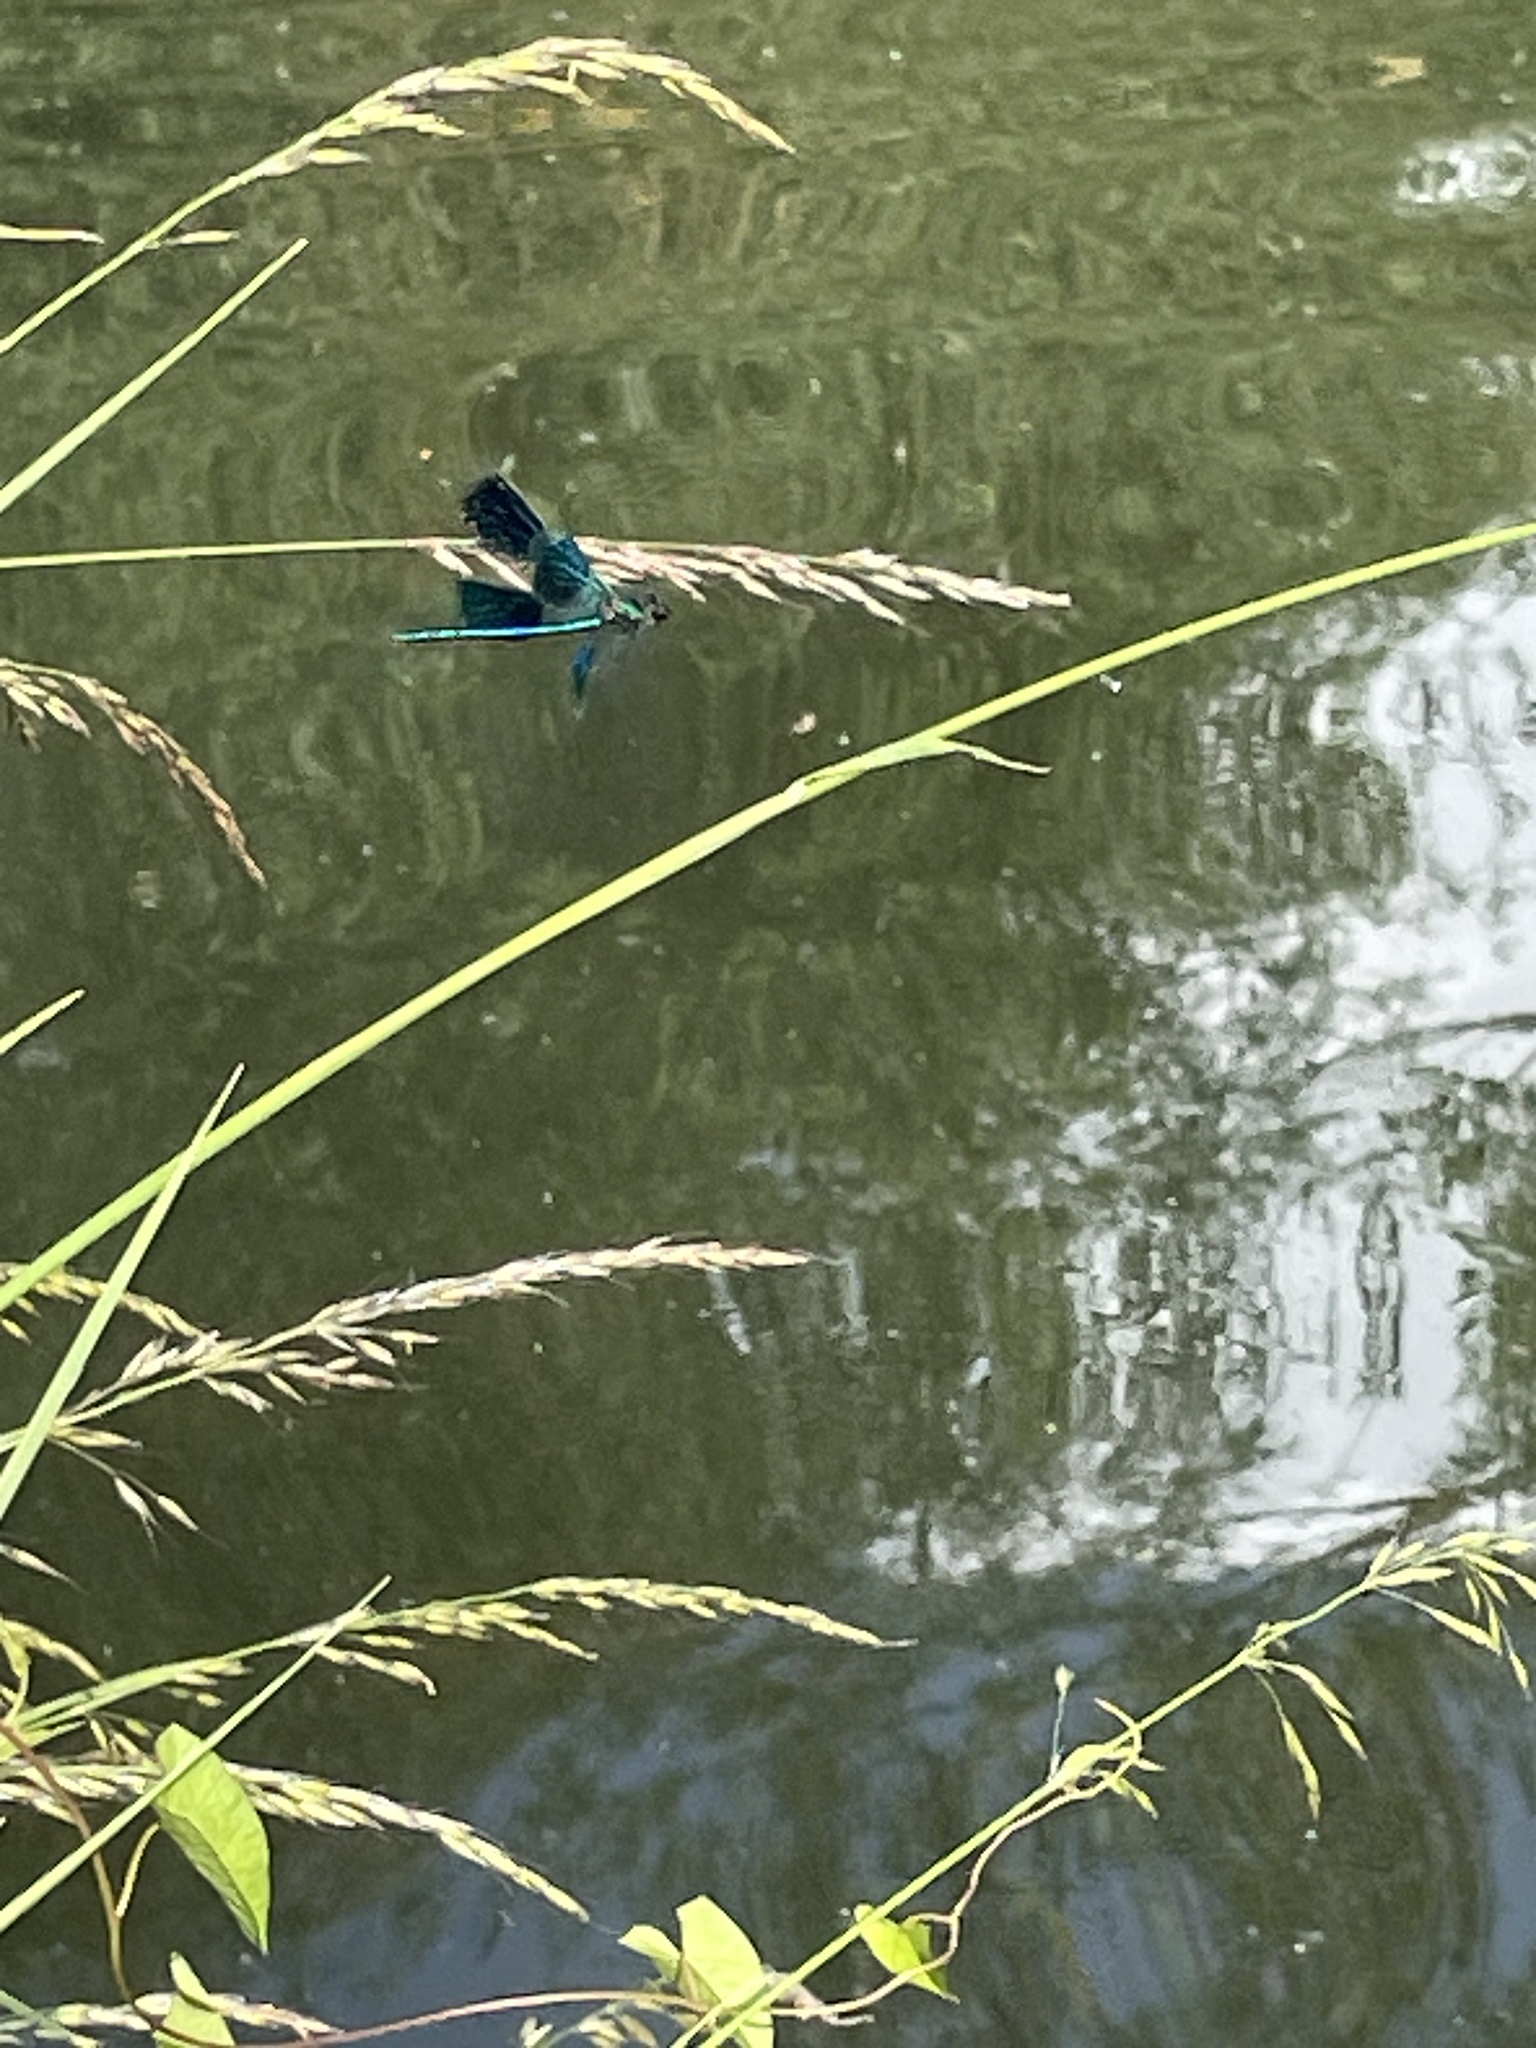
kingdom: Animalia
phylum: Arthropoda
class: Insecta
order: Odonata
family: Calopterygidae
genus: Calopteryx
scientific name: Calopteryx splendens
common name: Banded demoiselle
